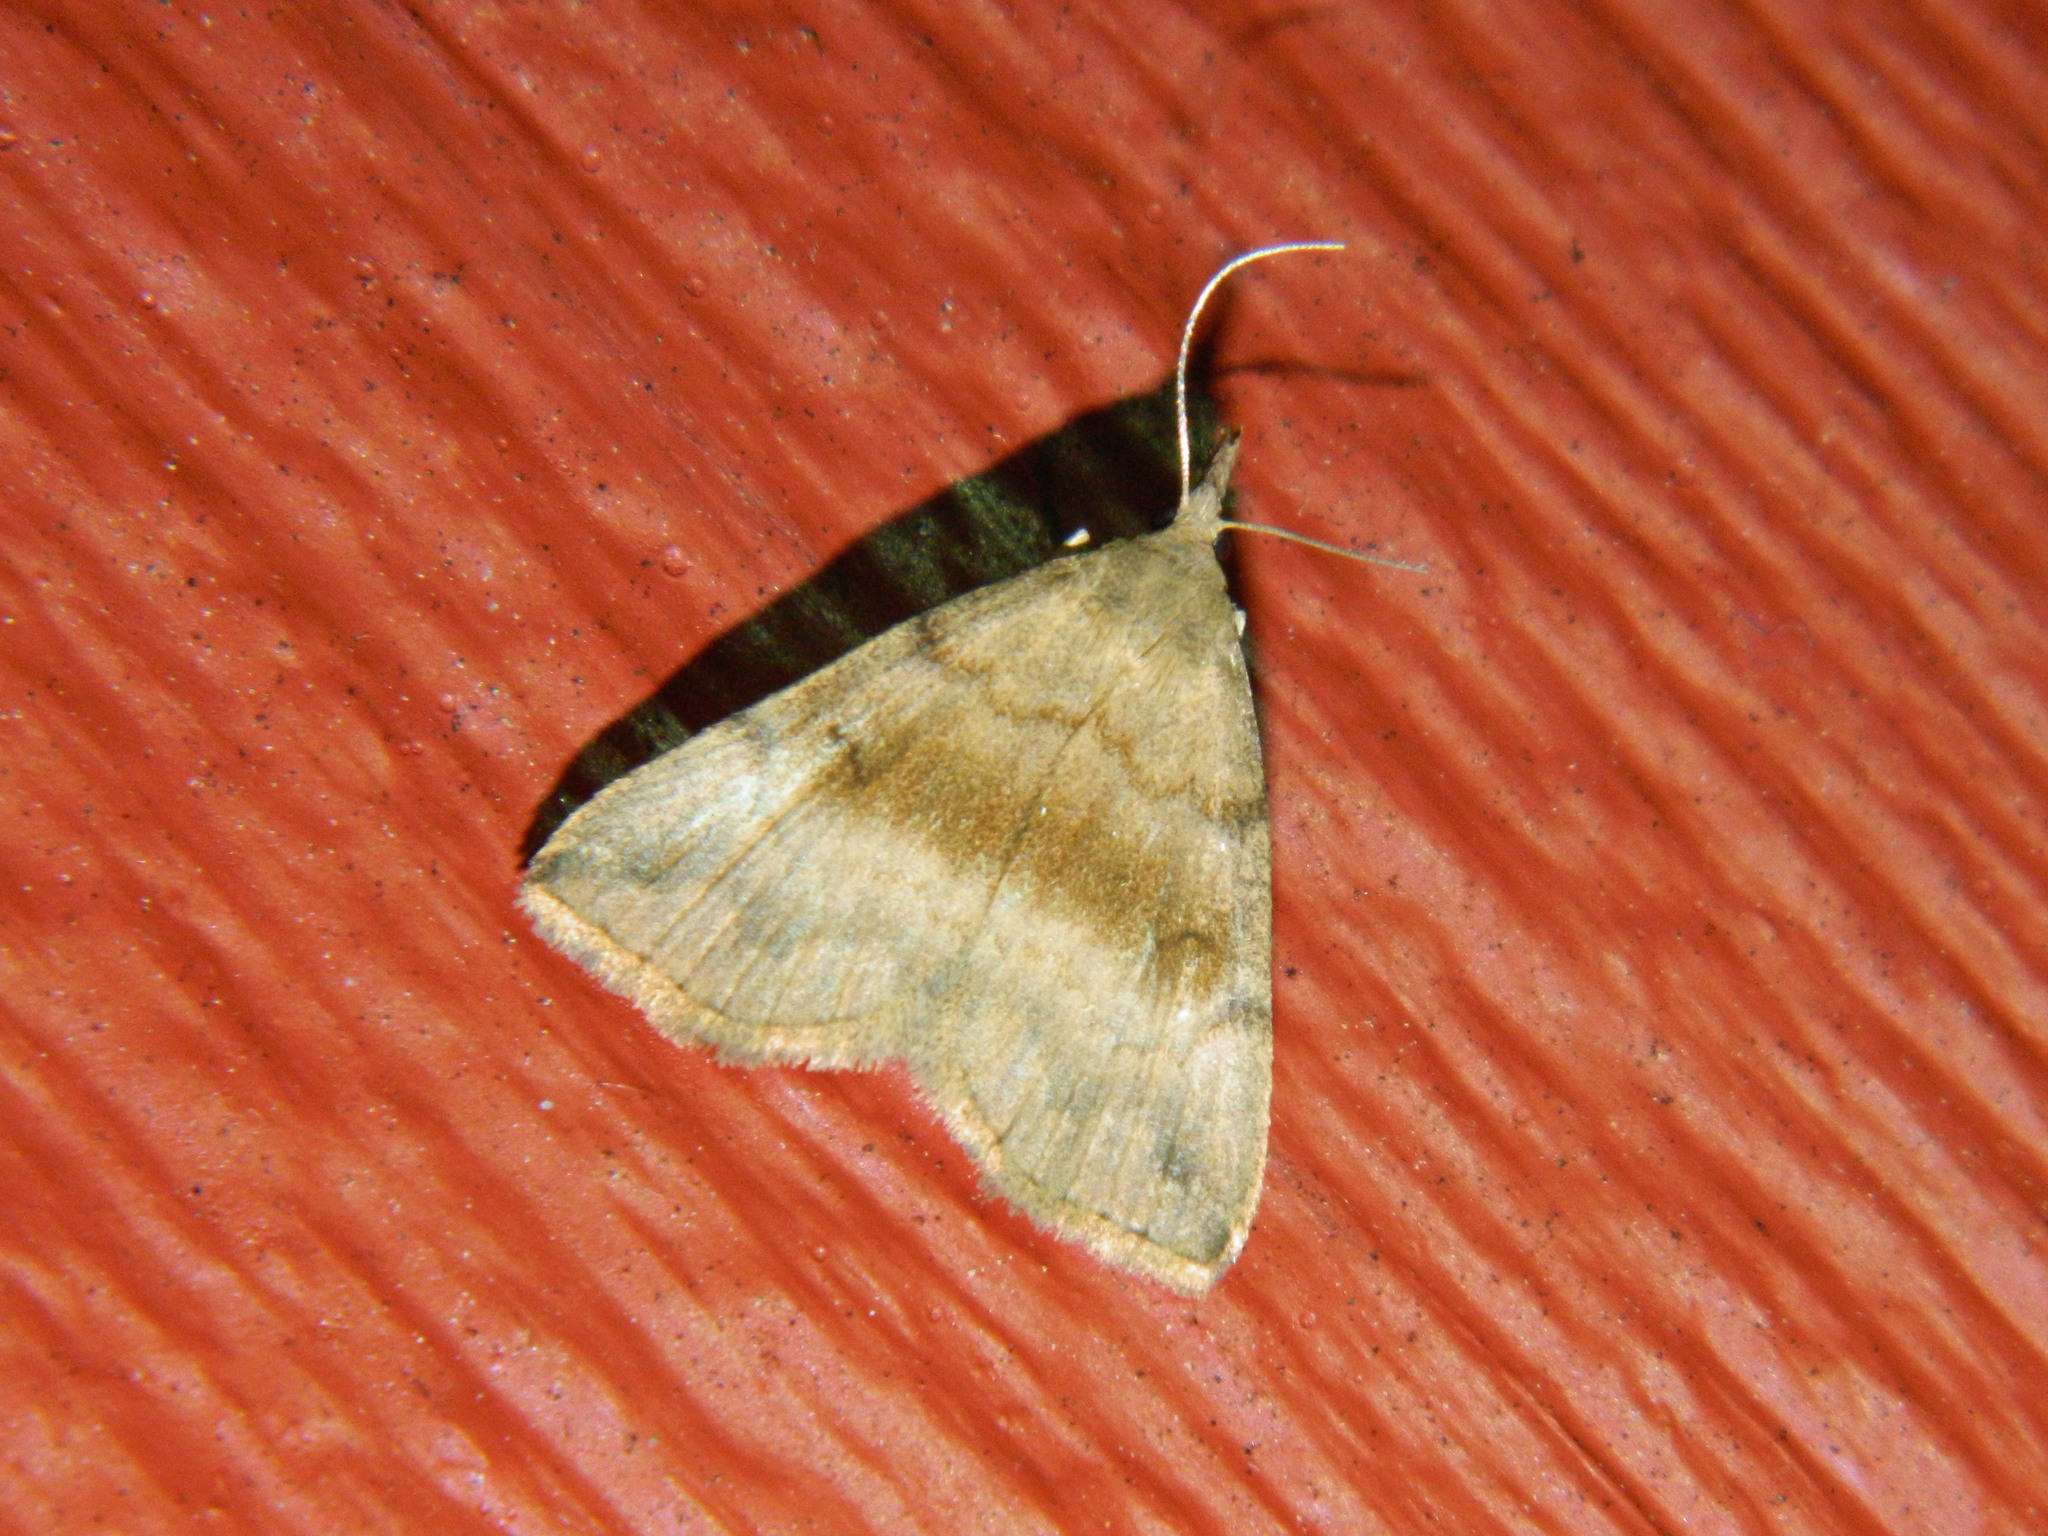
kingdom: Animalia
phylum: Arthropoda
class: Insecta
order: Lepidoptera
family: Erebidae
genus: Phalaenostola
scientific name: Phalaenostola eumelusalis
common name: Dark phalaenostola moth
